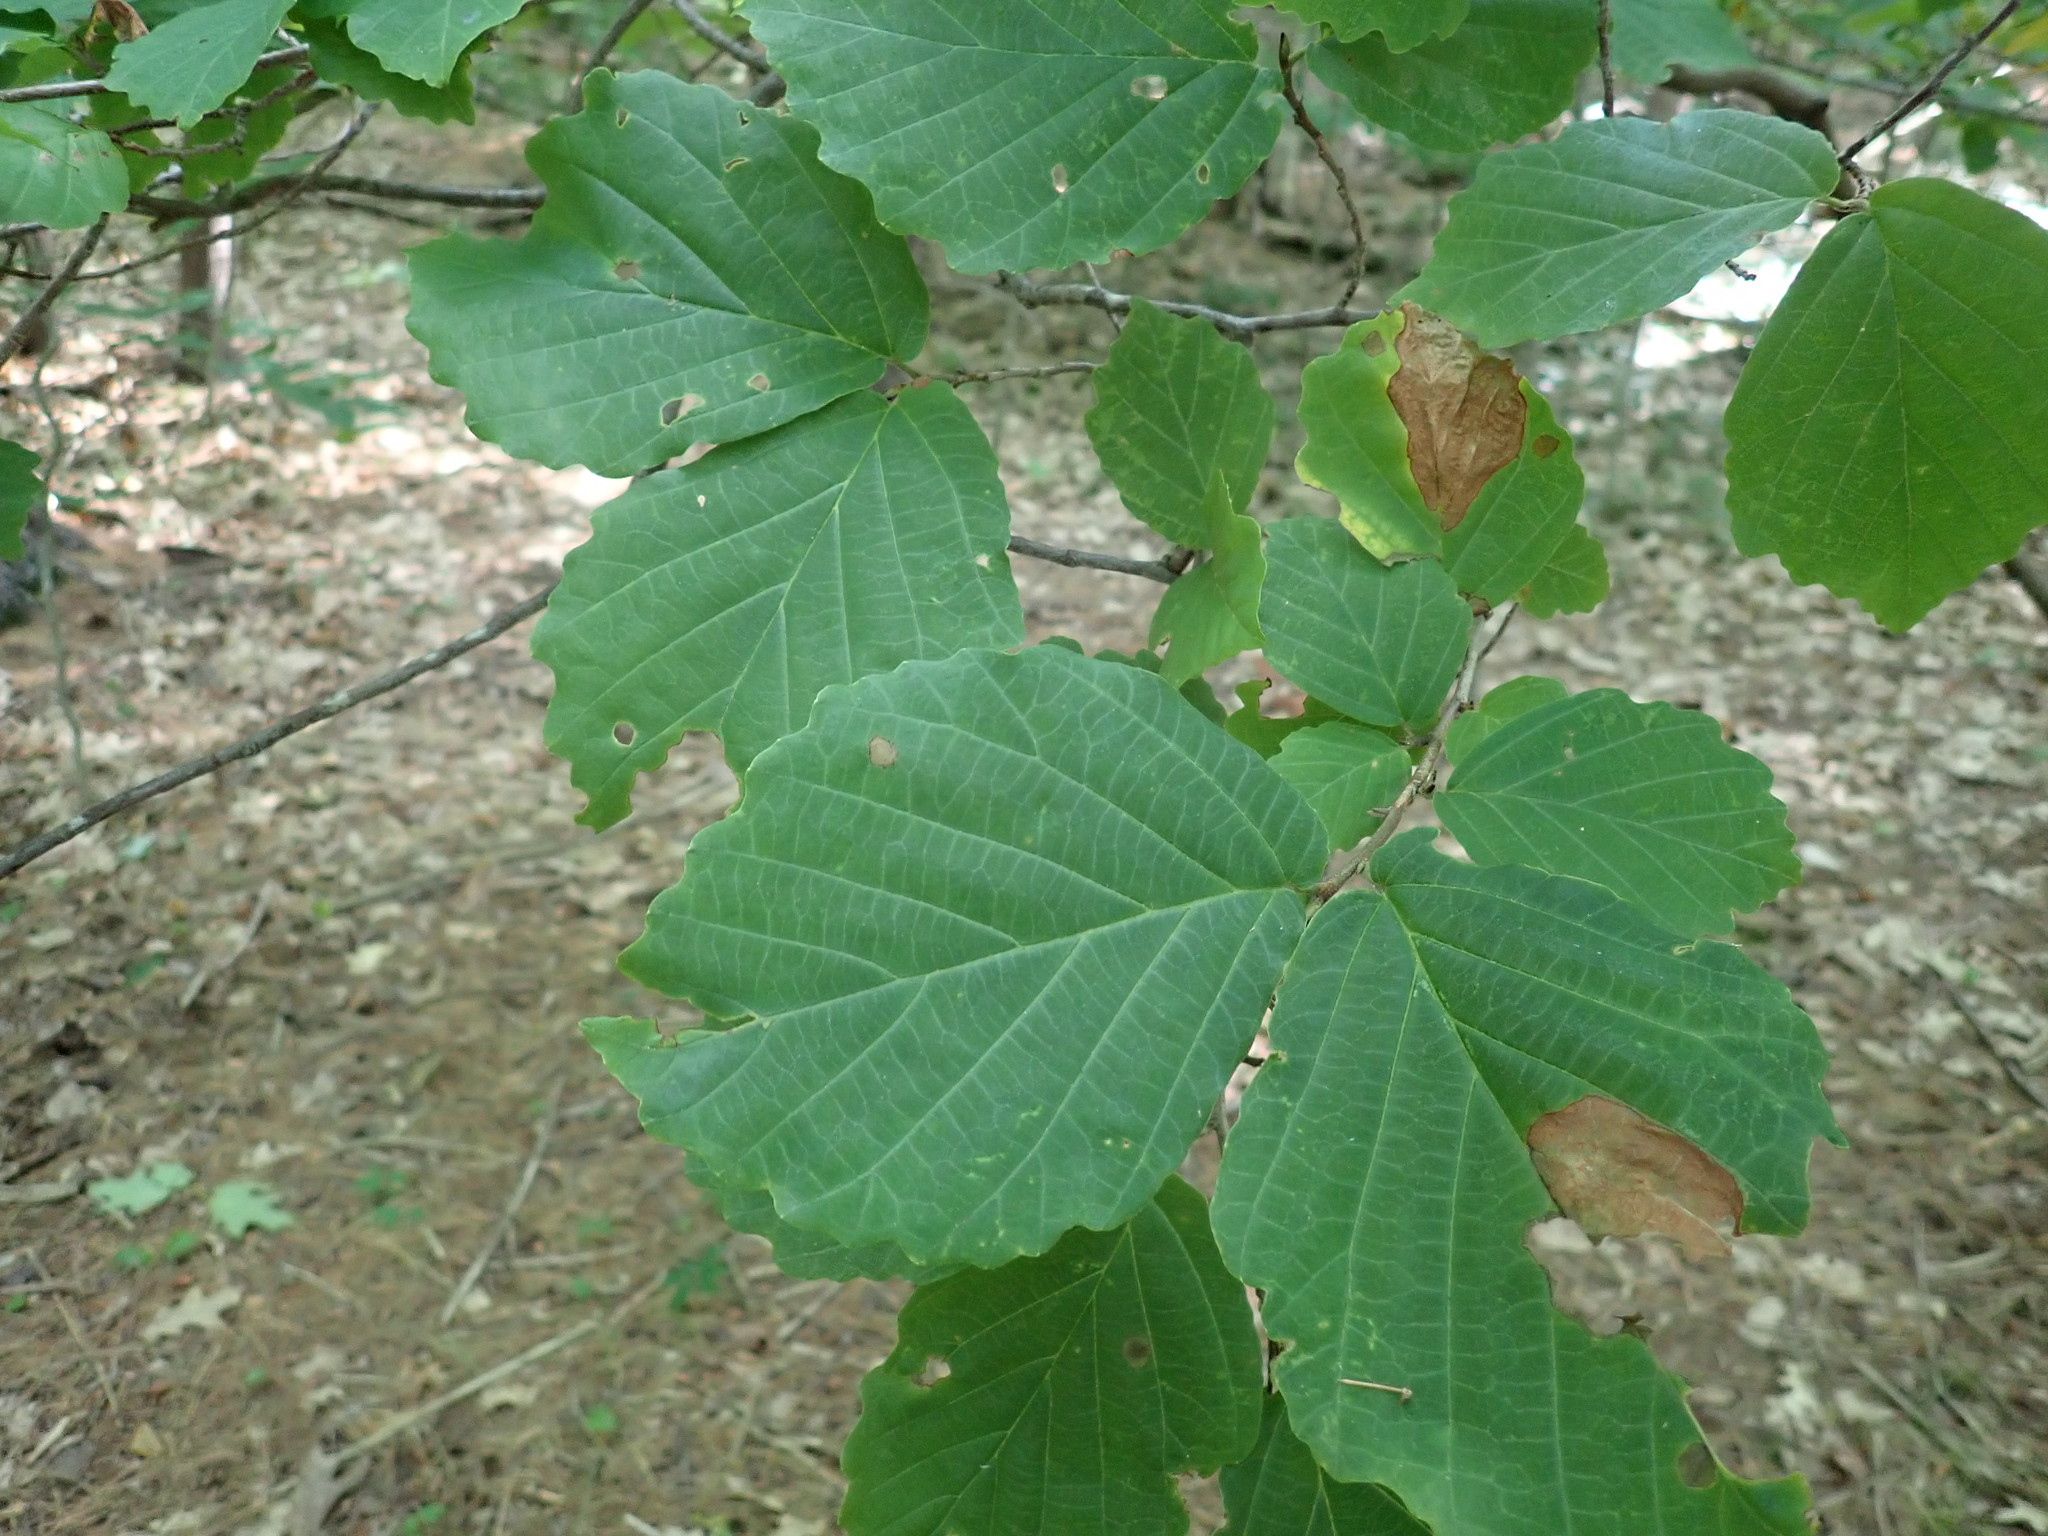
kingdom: Plantae
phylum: Tracheophyta
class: Magnoliopsida
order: Saxifragales
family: Hamamelidaceae
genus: Hamamelis
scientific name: Hamamelis virginiana
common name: Witch-hazel
